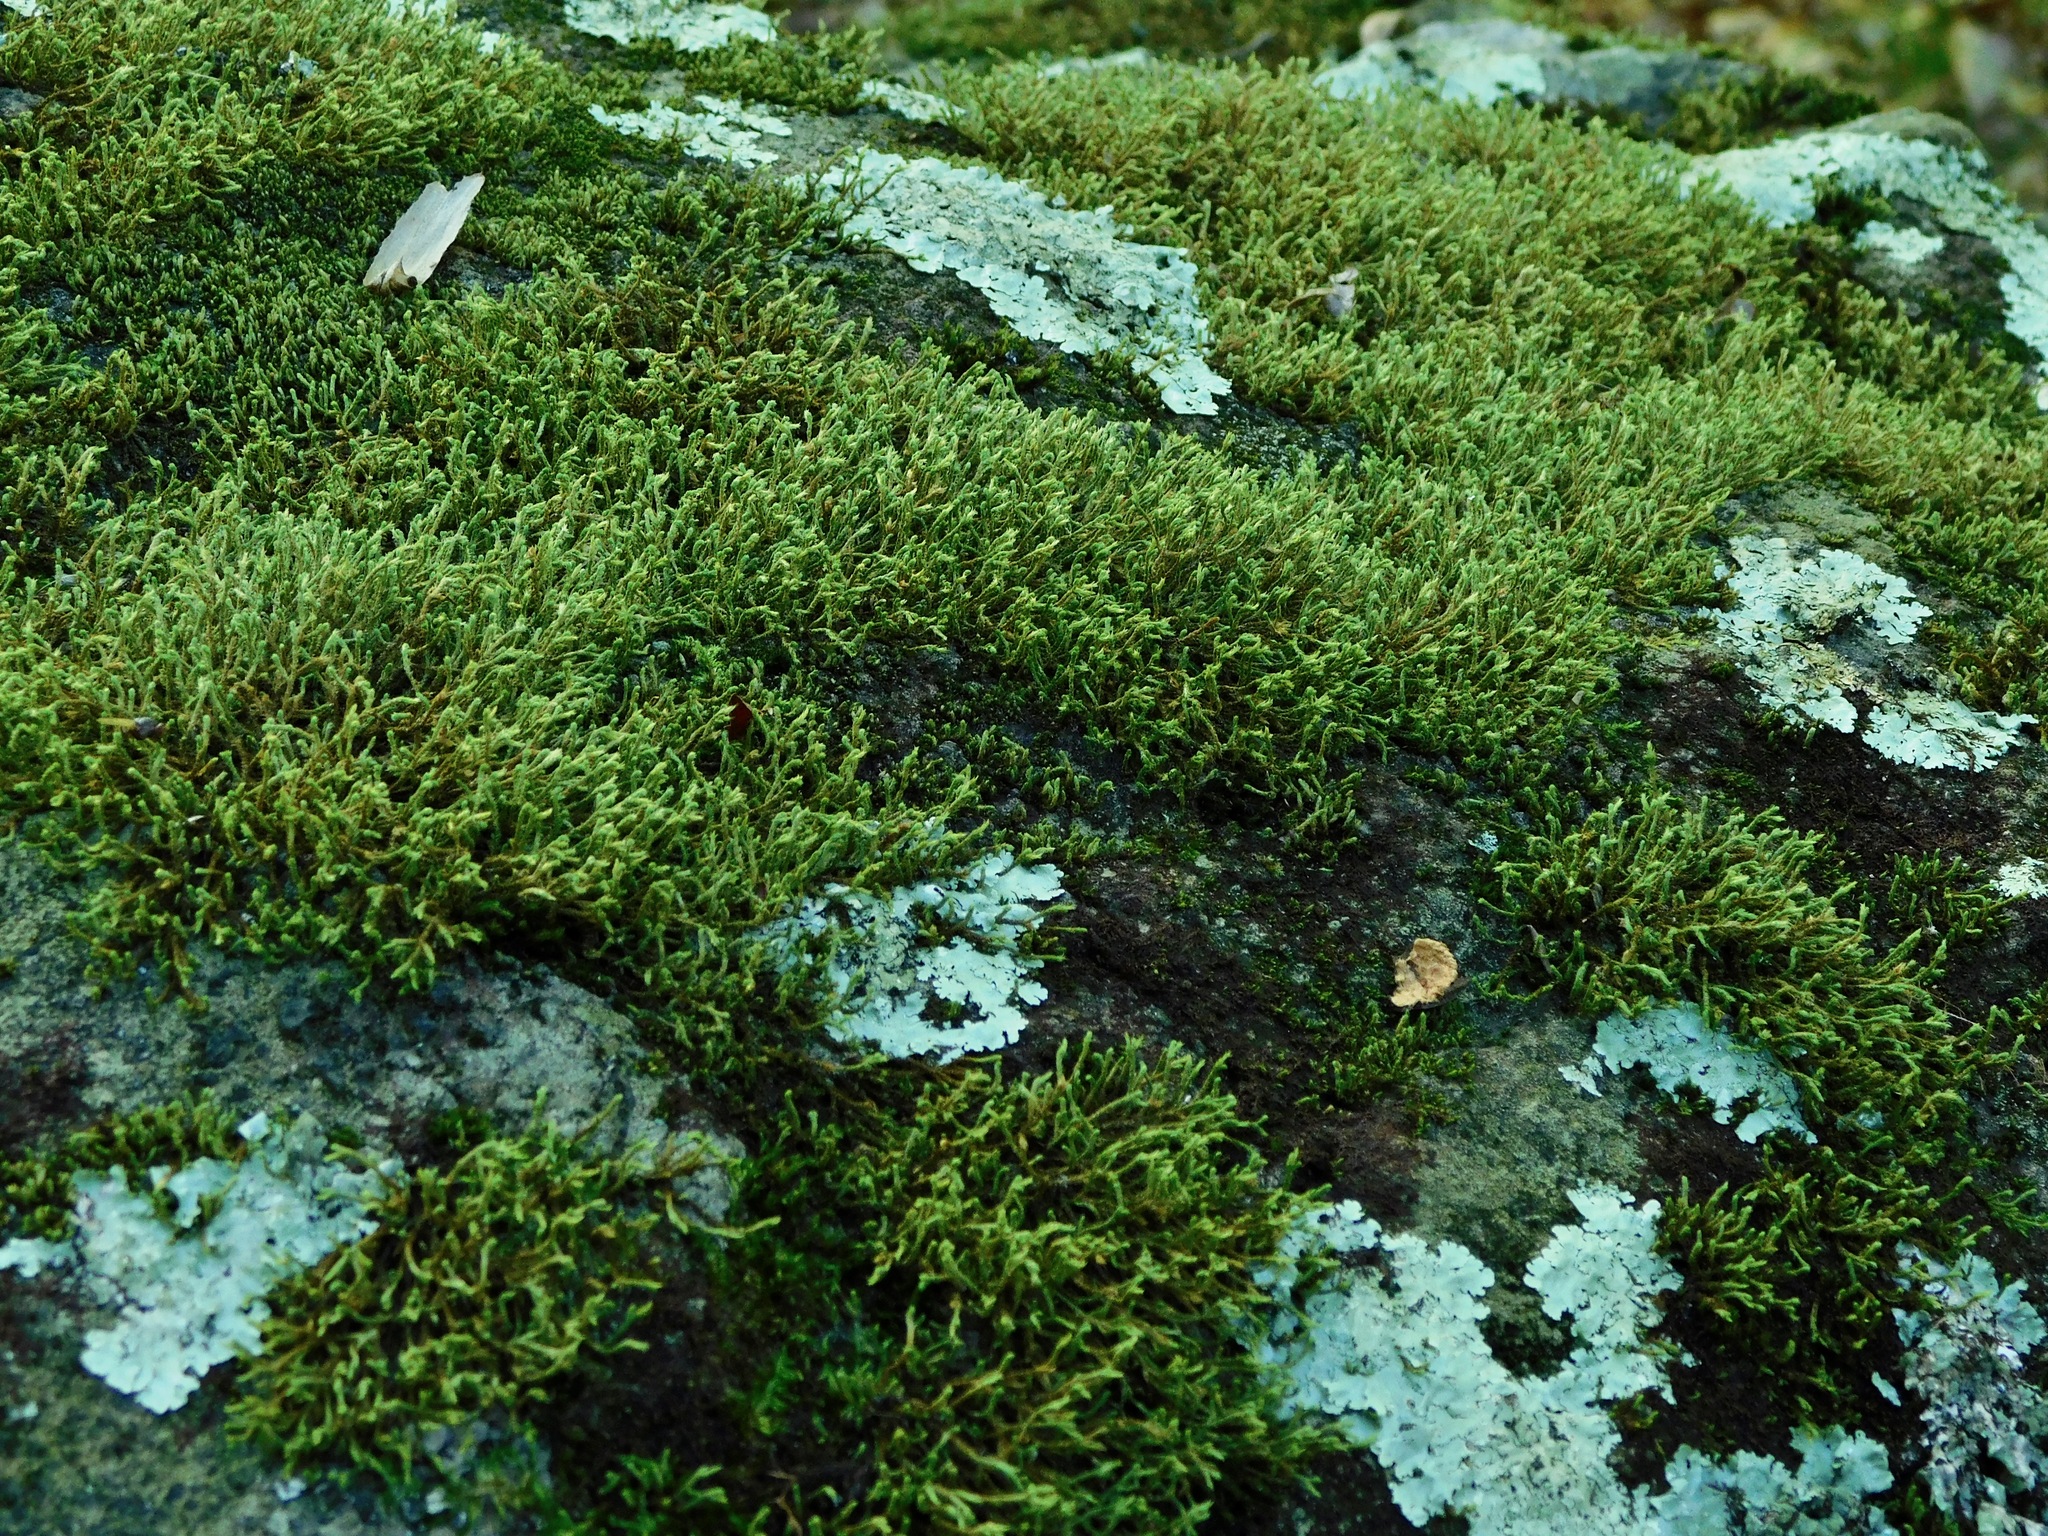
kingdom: Plantae
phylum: Bryophyta
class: Bryopsida
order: Hedwigiales
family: Hedwigiaceae
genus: Hedwigia
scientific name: Hedwigia ciliata
